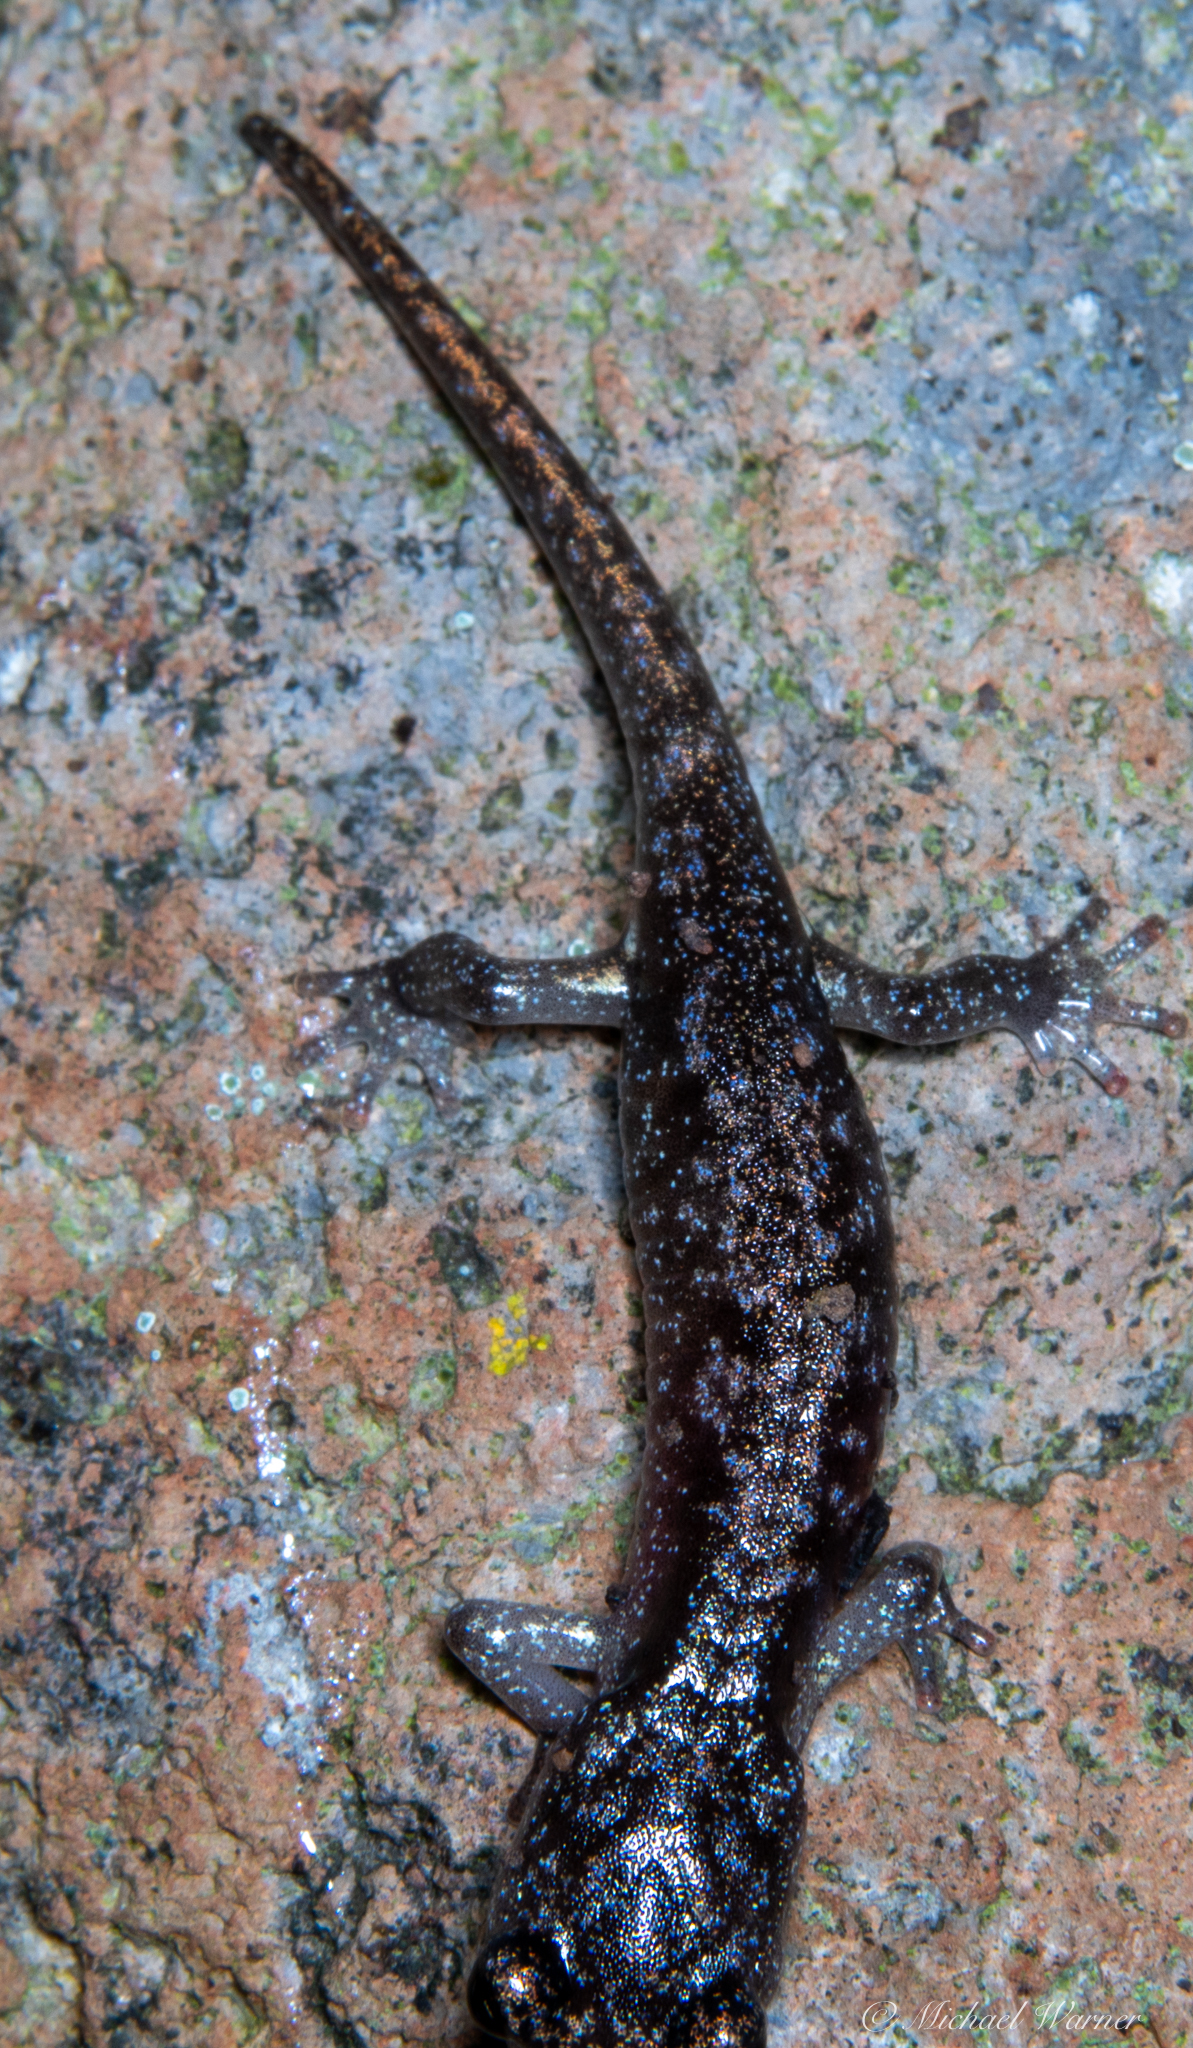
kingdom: Animalia
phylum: Chordata
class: Amphibia
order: Caudata
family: Plethodontidae
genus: Aneides
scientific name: Aneides lugubris
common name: Arboreal salamander
